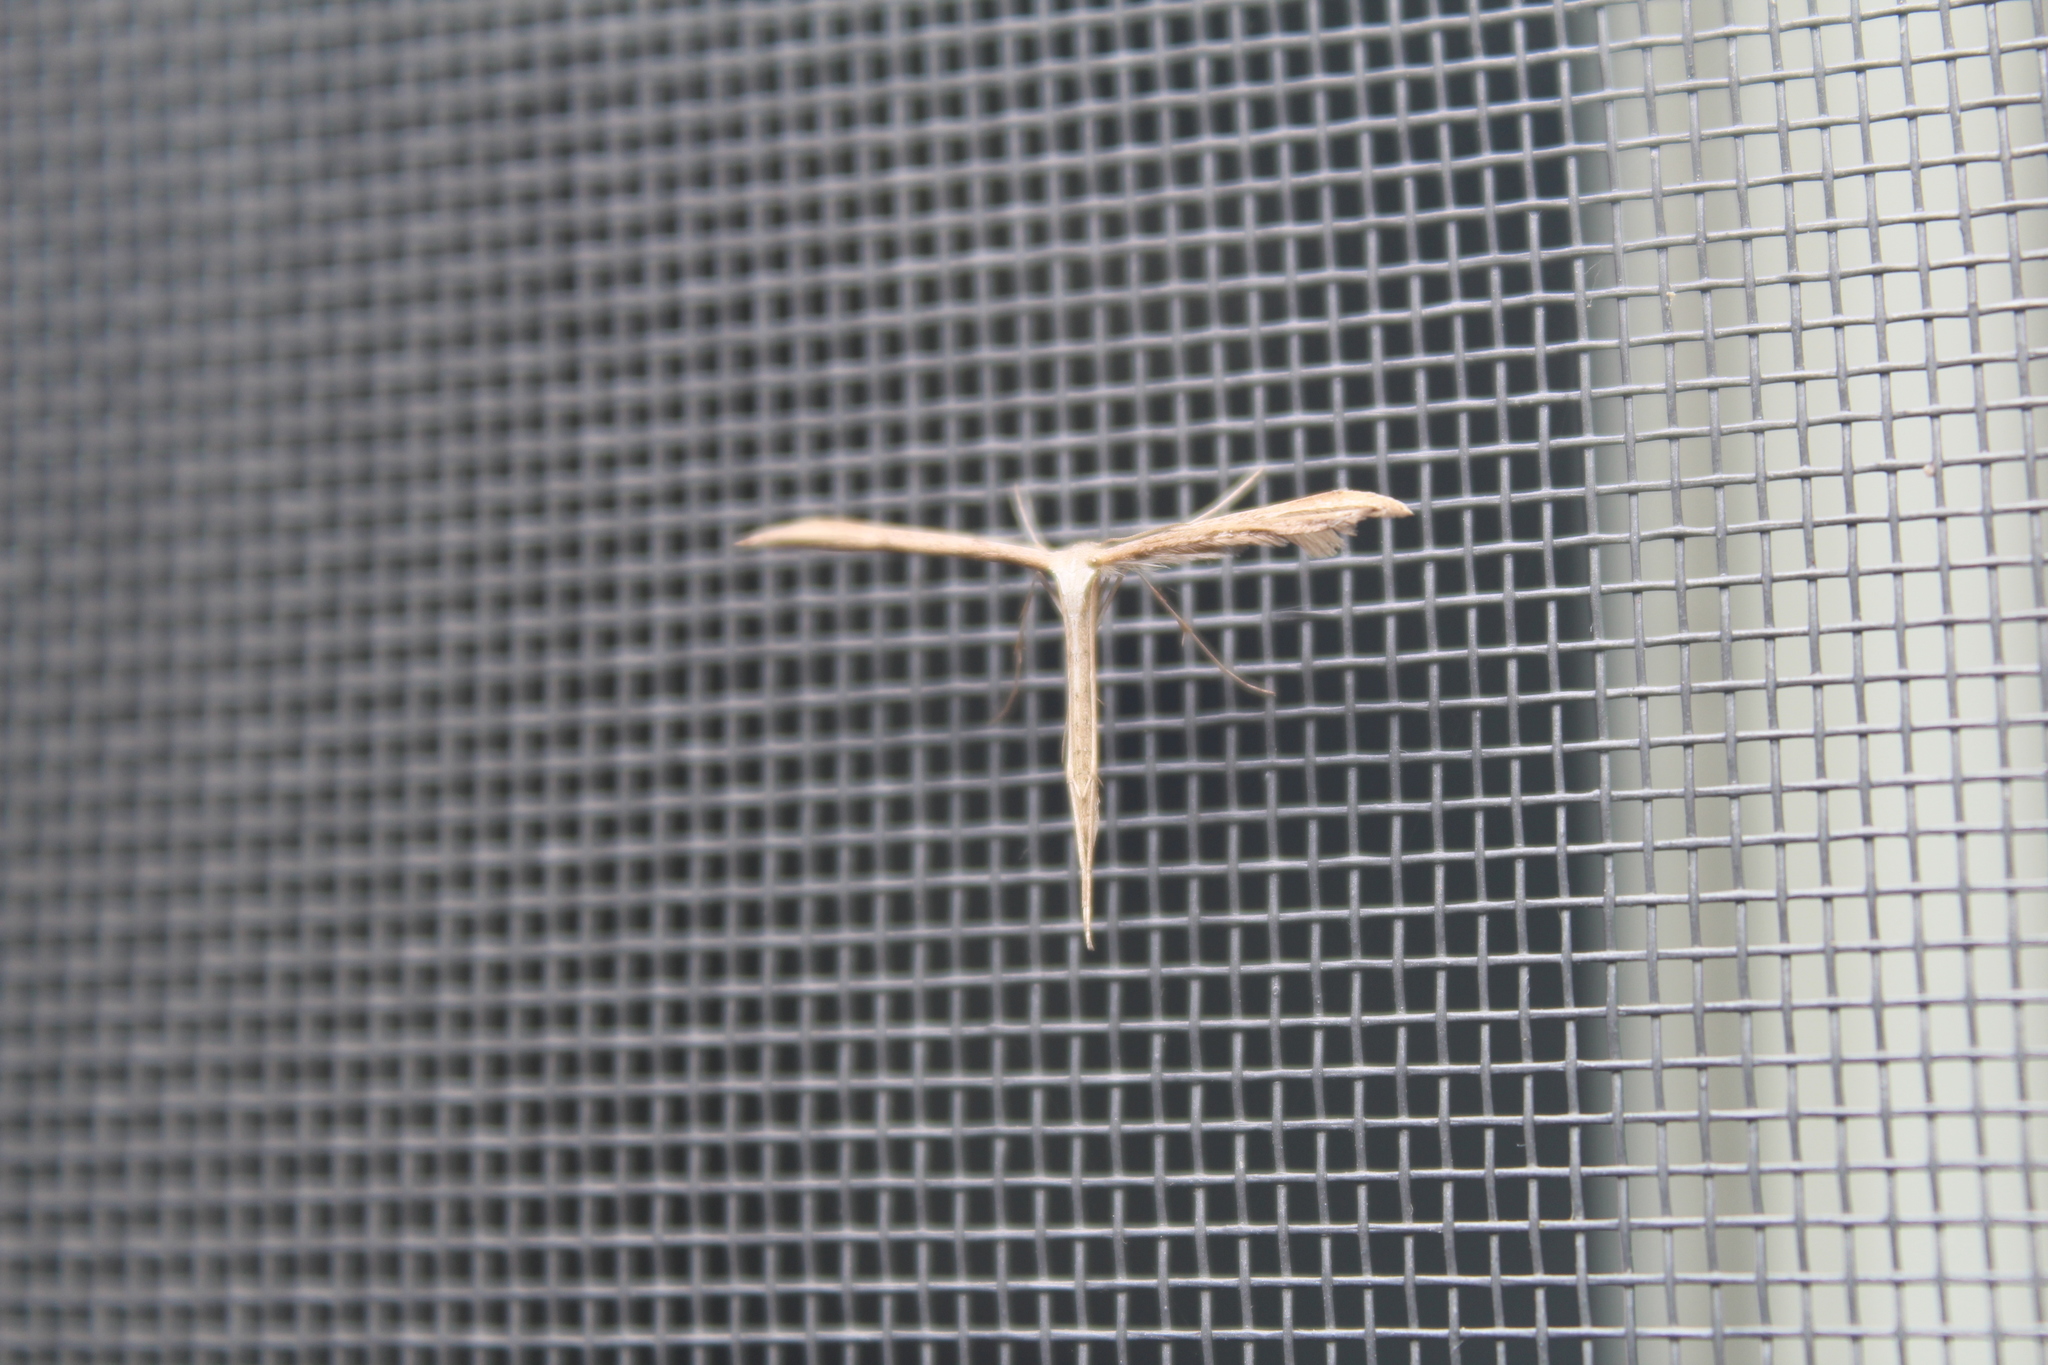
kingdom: Animalia
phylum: Arthropoda
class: Insecta
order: Lepidoptera
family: Pterophoridae
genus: Emmelina
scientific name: Emmelina monodactyla
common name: Common plume
